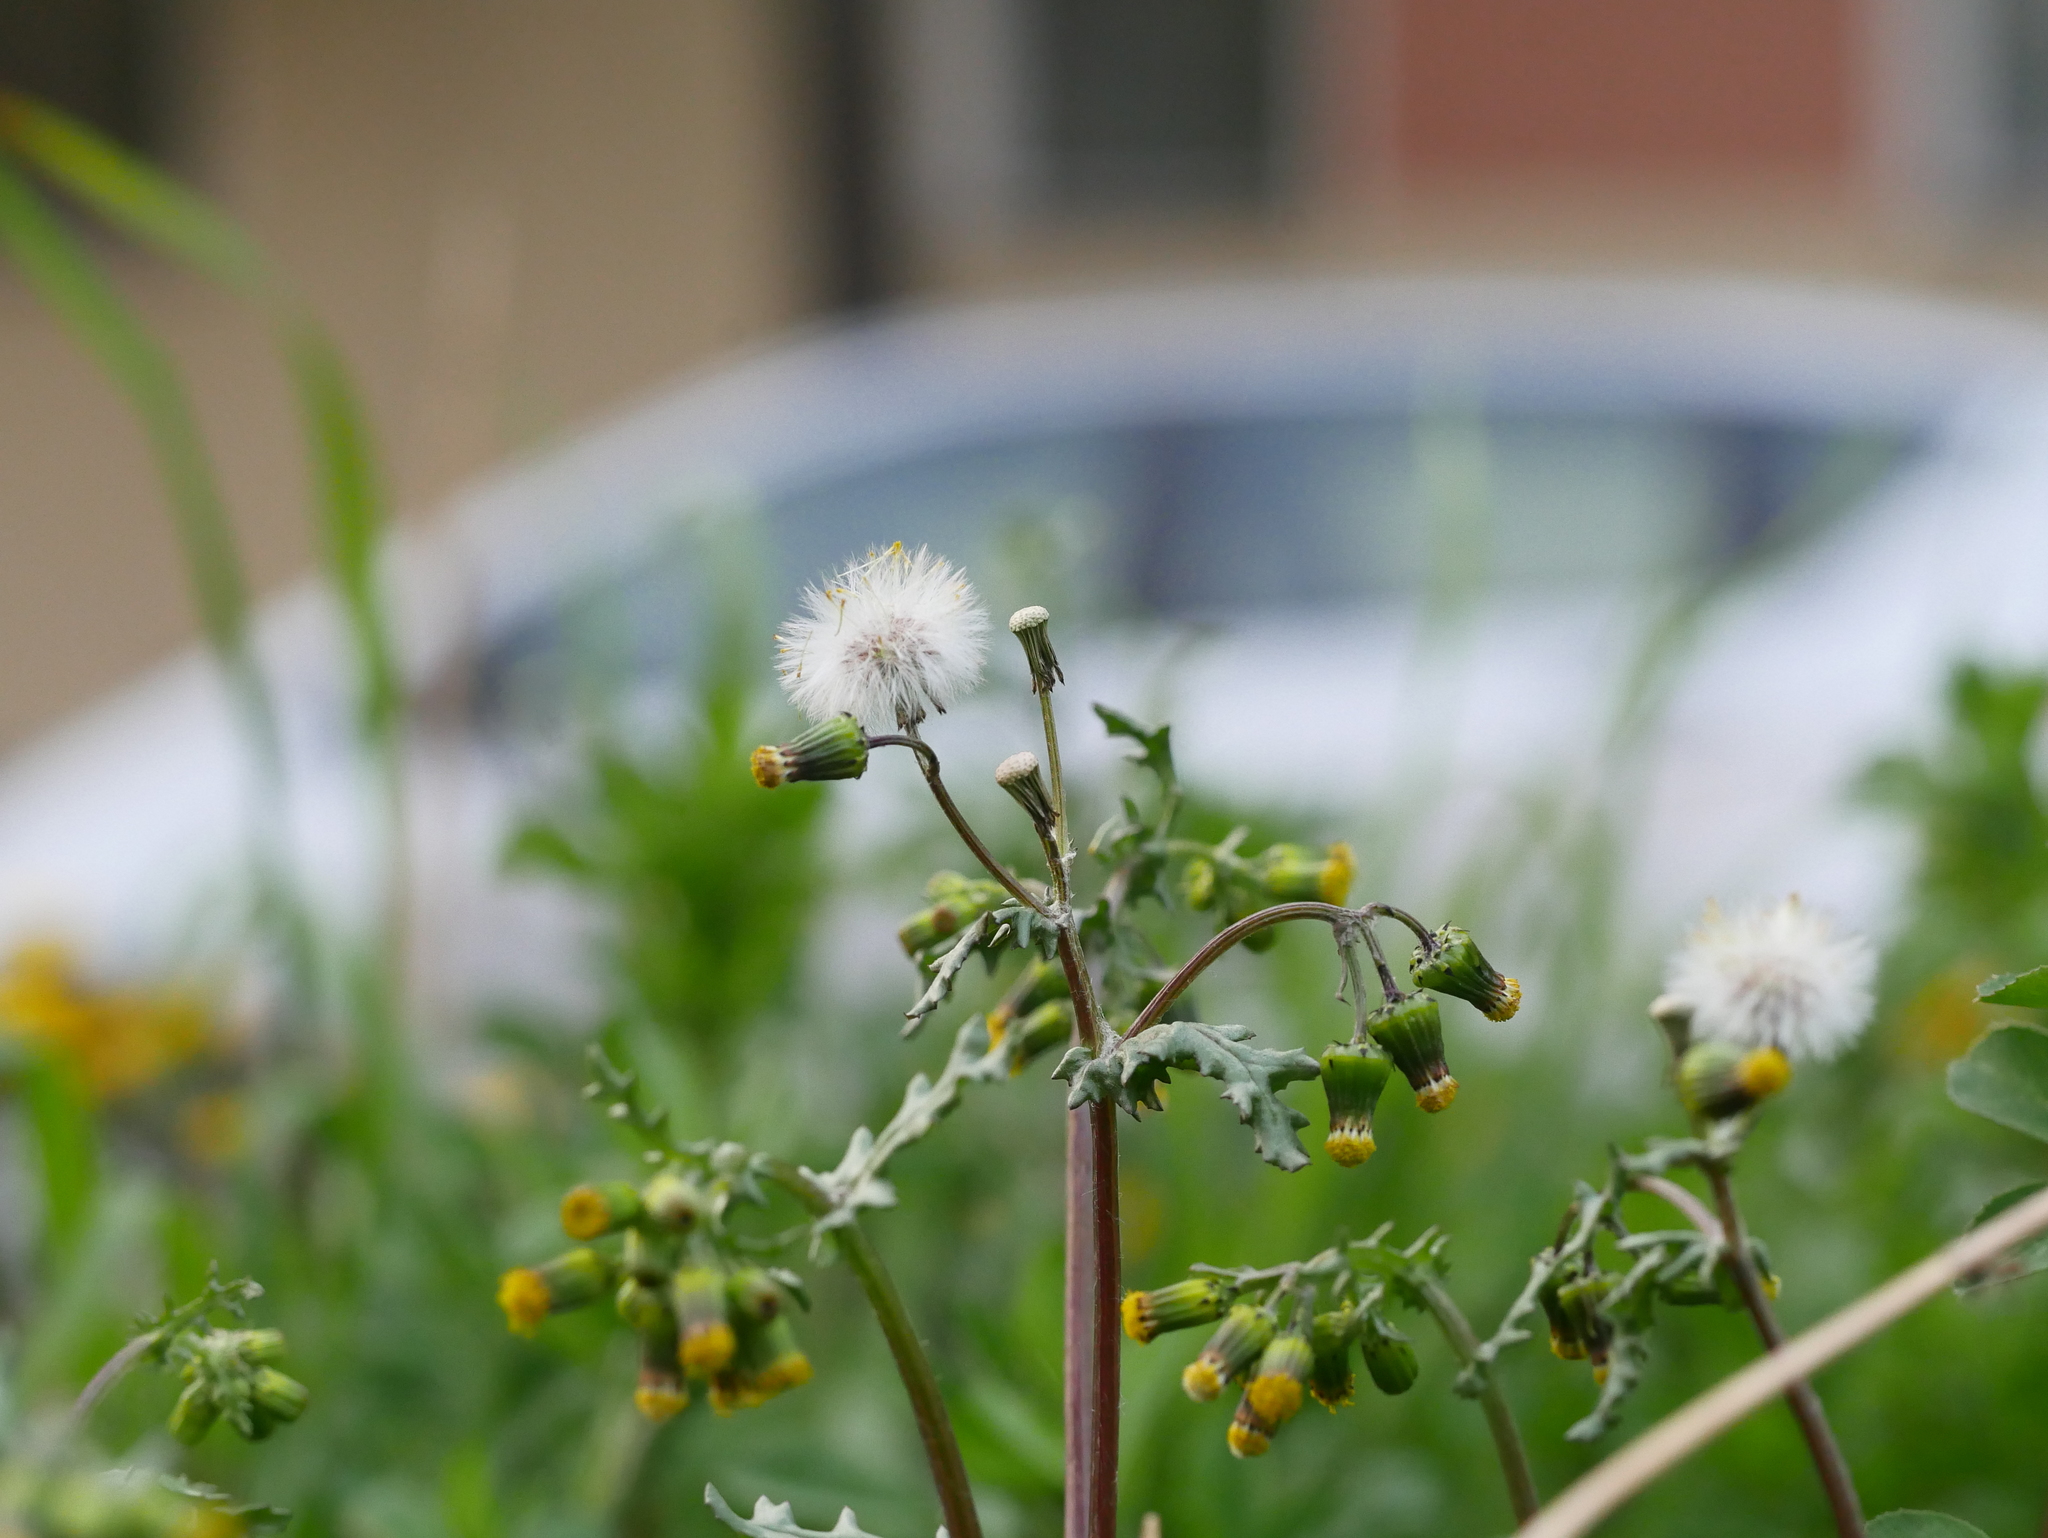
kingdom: Plantae
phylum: Tracheophyta
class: Magnoliopsida
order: Asterales
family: Asteraceae
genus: Senecio
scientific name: Senecio vulgaris
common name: Old-man-in-the-spring
